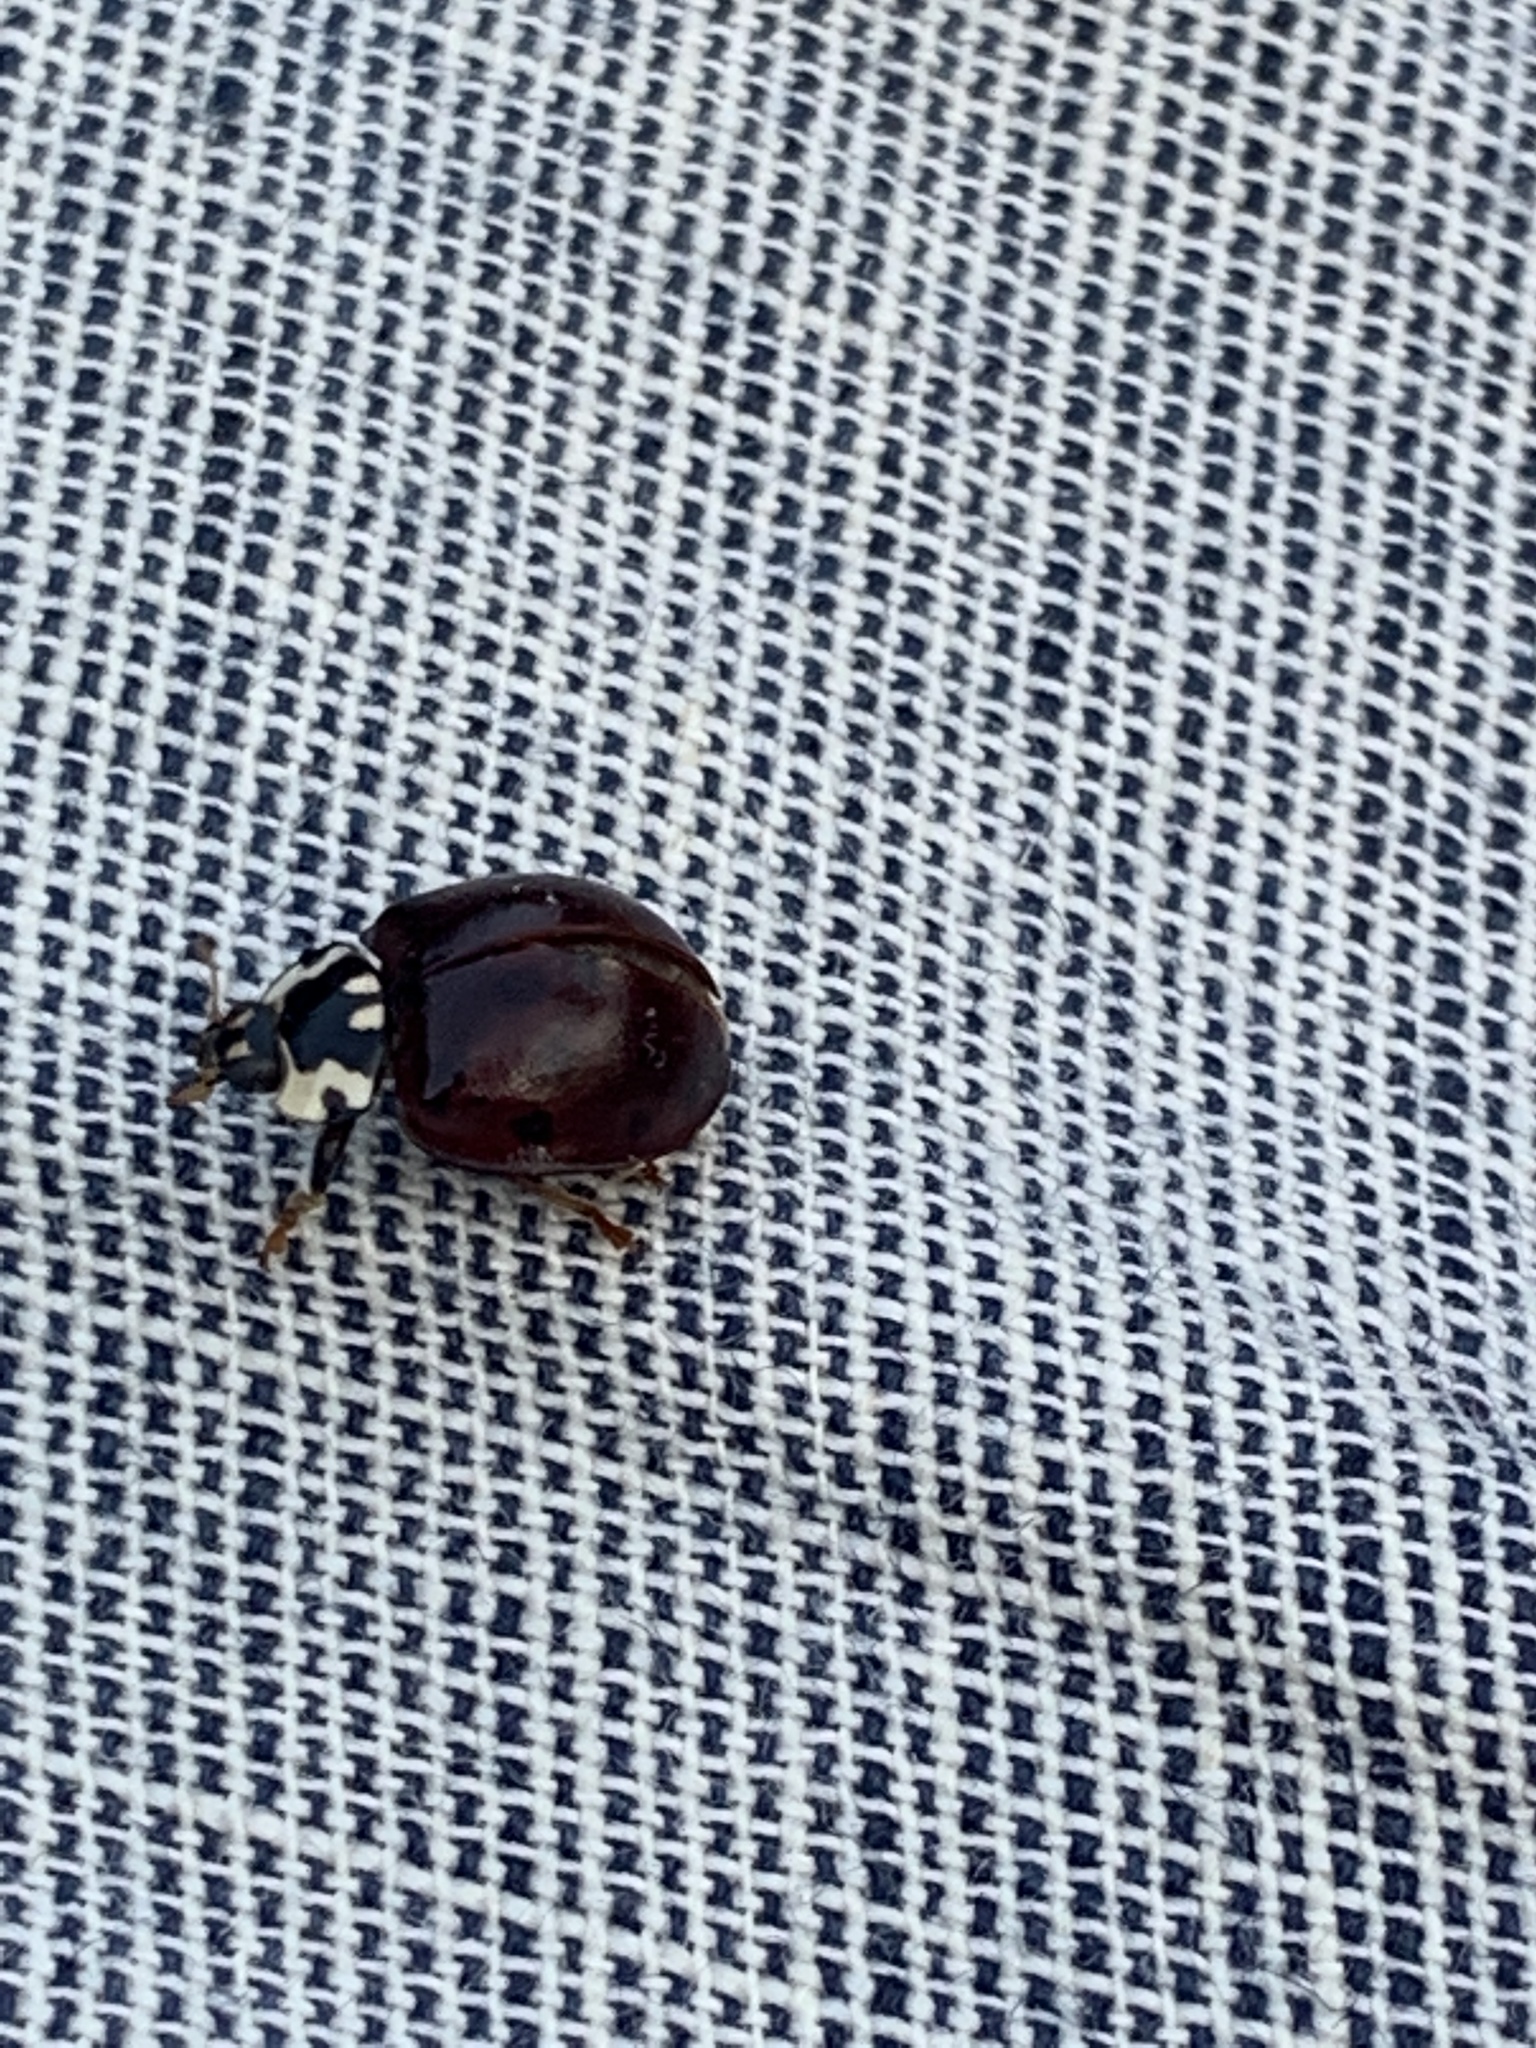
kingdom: Animalia
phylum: Arthropoda
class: Insecta
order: Coleoptera
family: Coccinellidae
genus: Anatis
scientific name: Anatis labiculata
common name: Fifteen-spotted lady beetle
